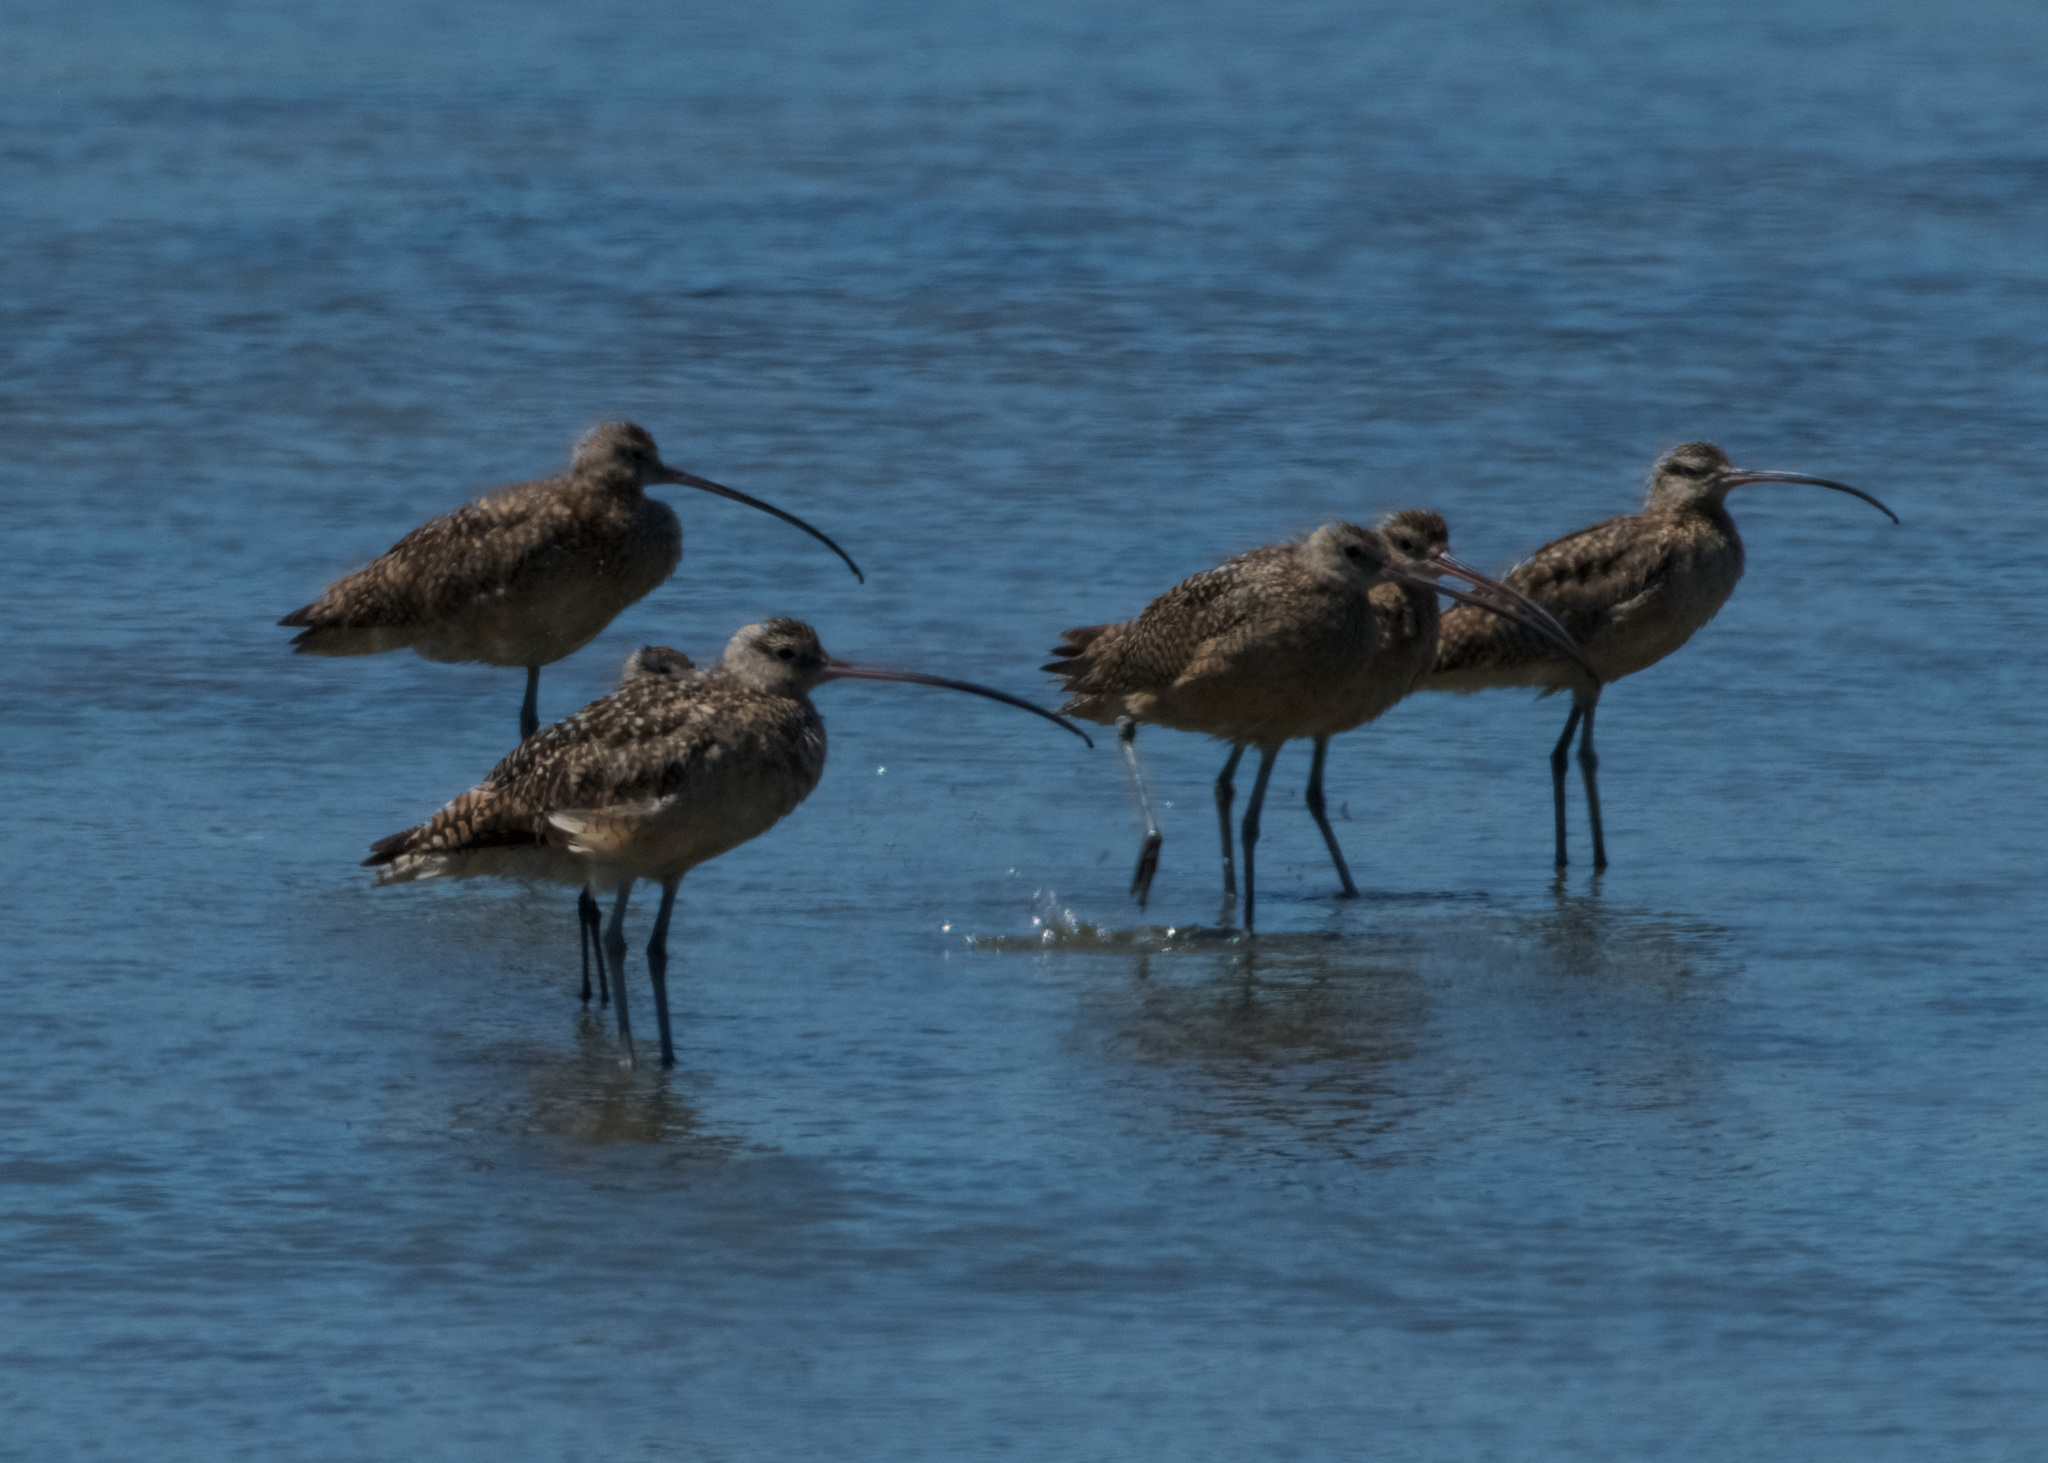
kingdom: Animalia
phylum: Chordata
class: Aves
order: Charadriiformes
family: Scolopacidae
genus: Numenius
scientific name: Numenius americanus
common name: Long-billed curlew
